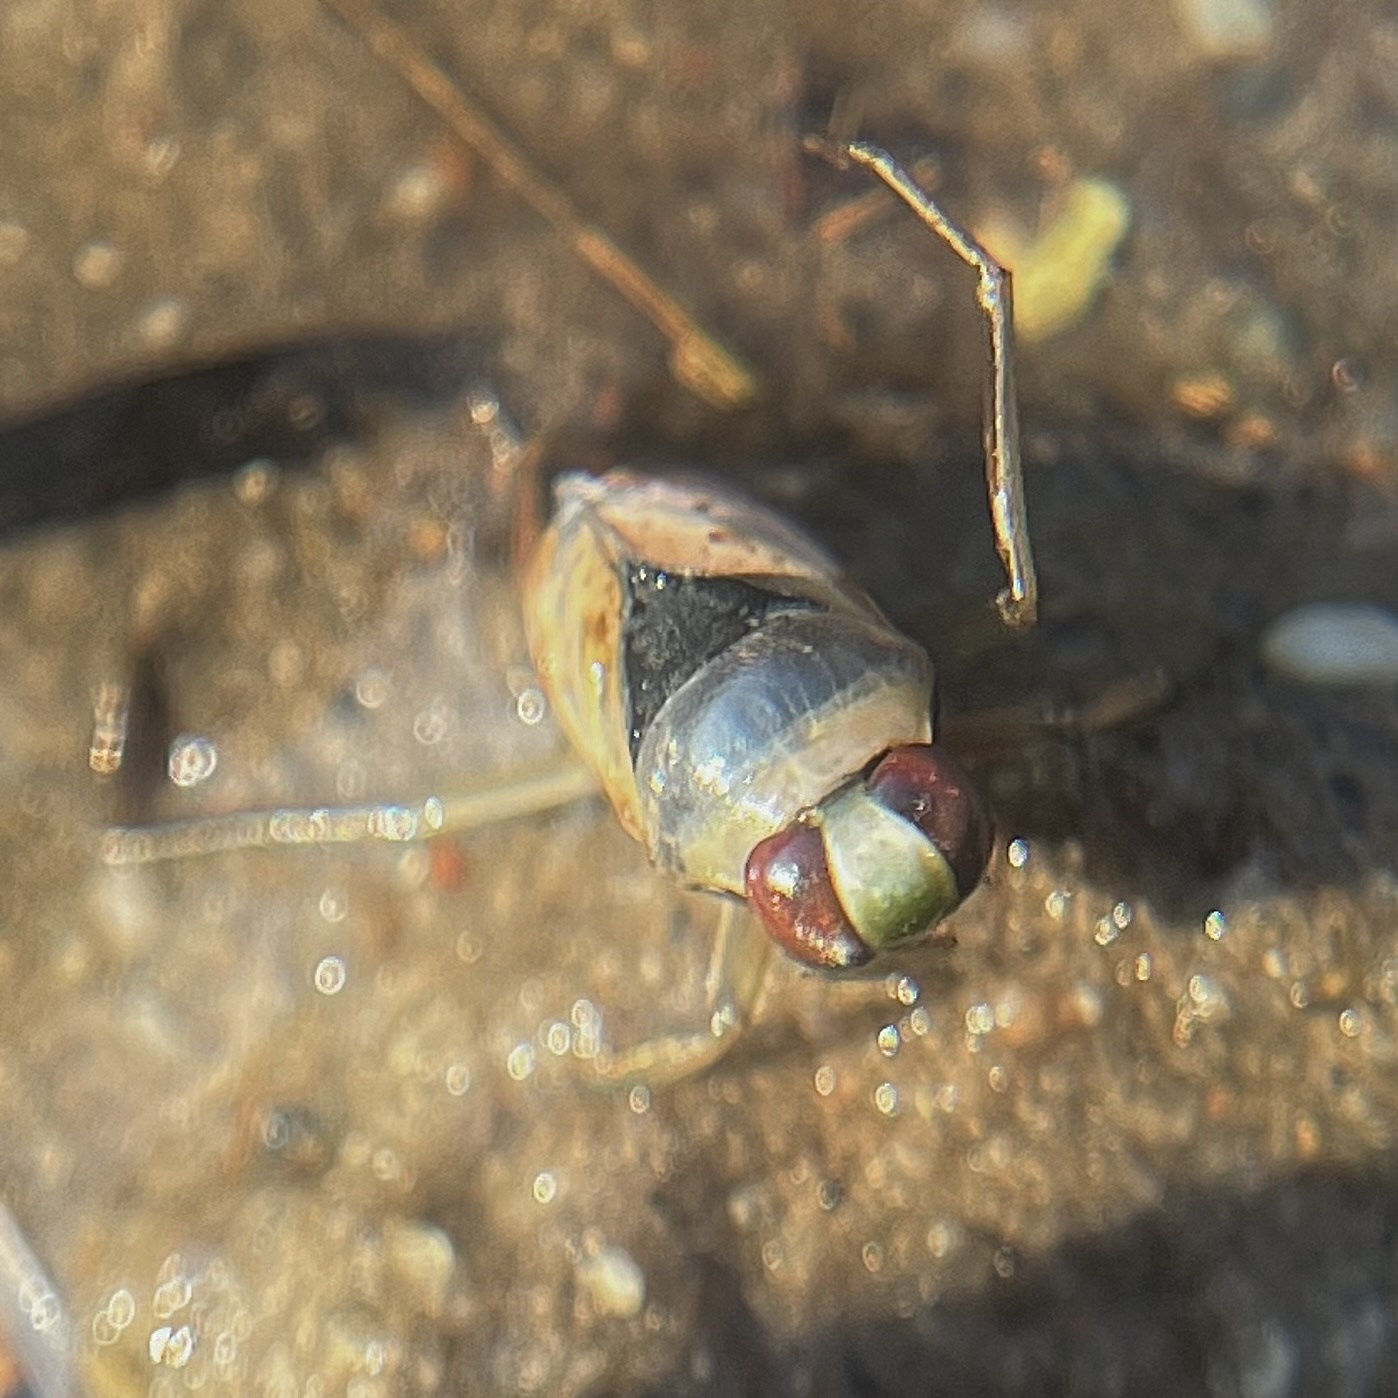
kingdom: Animalia
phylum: Arthropoda
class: Insecta
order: Hemiptera
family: Notonectidae
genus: Notonecta
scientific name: Notonecta glauca
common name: Common water-boatman
